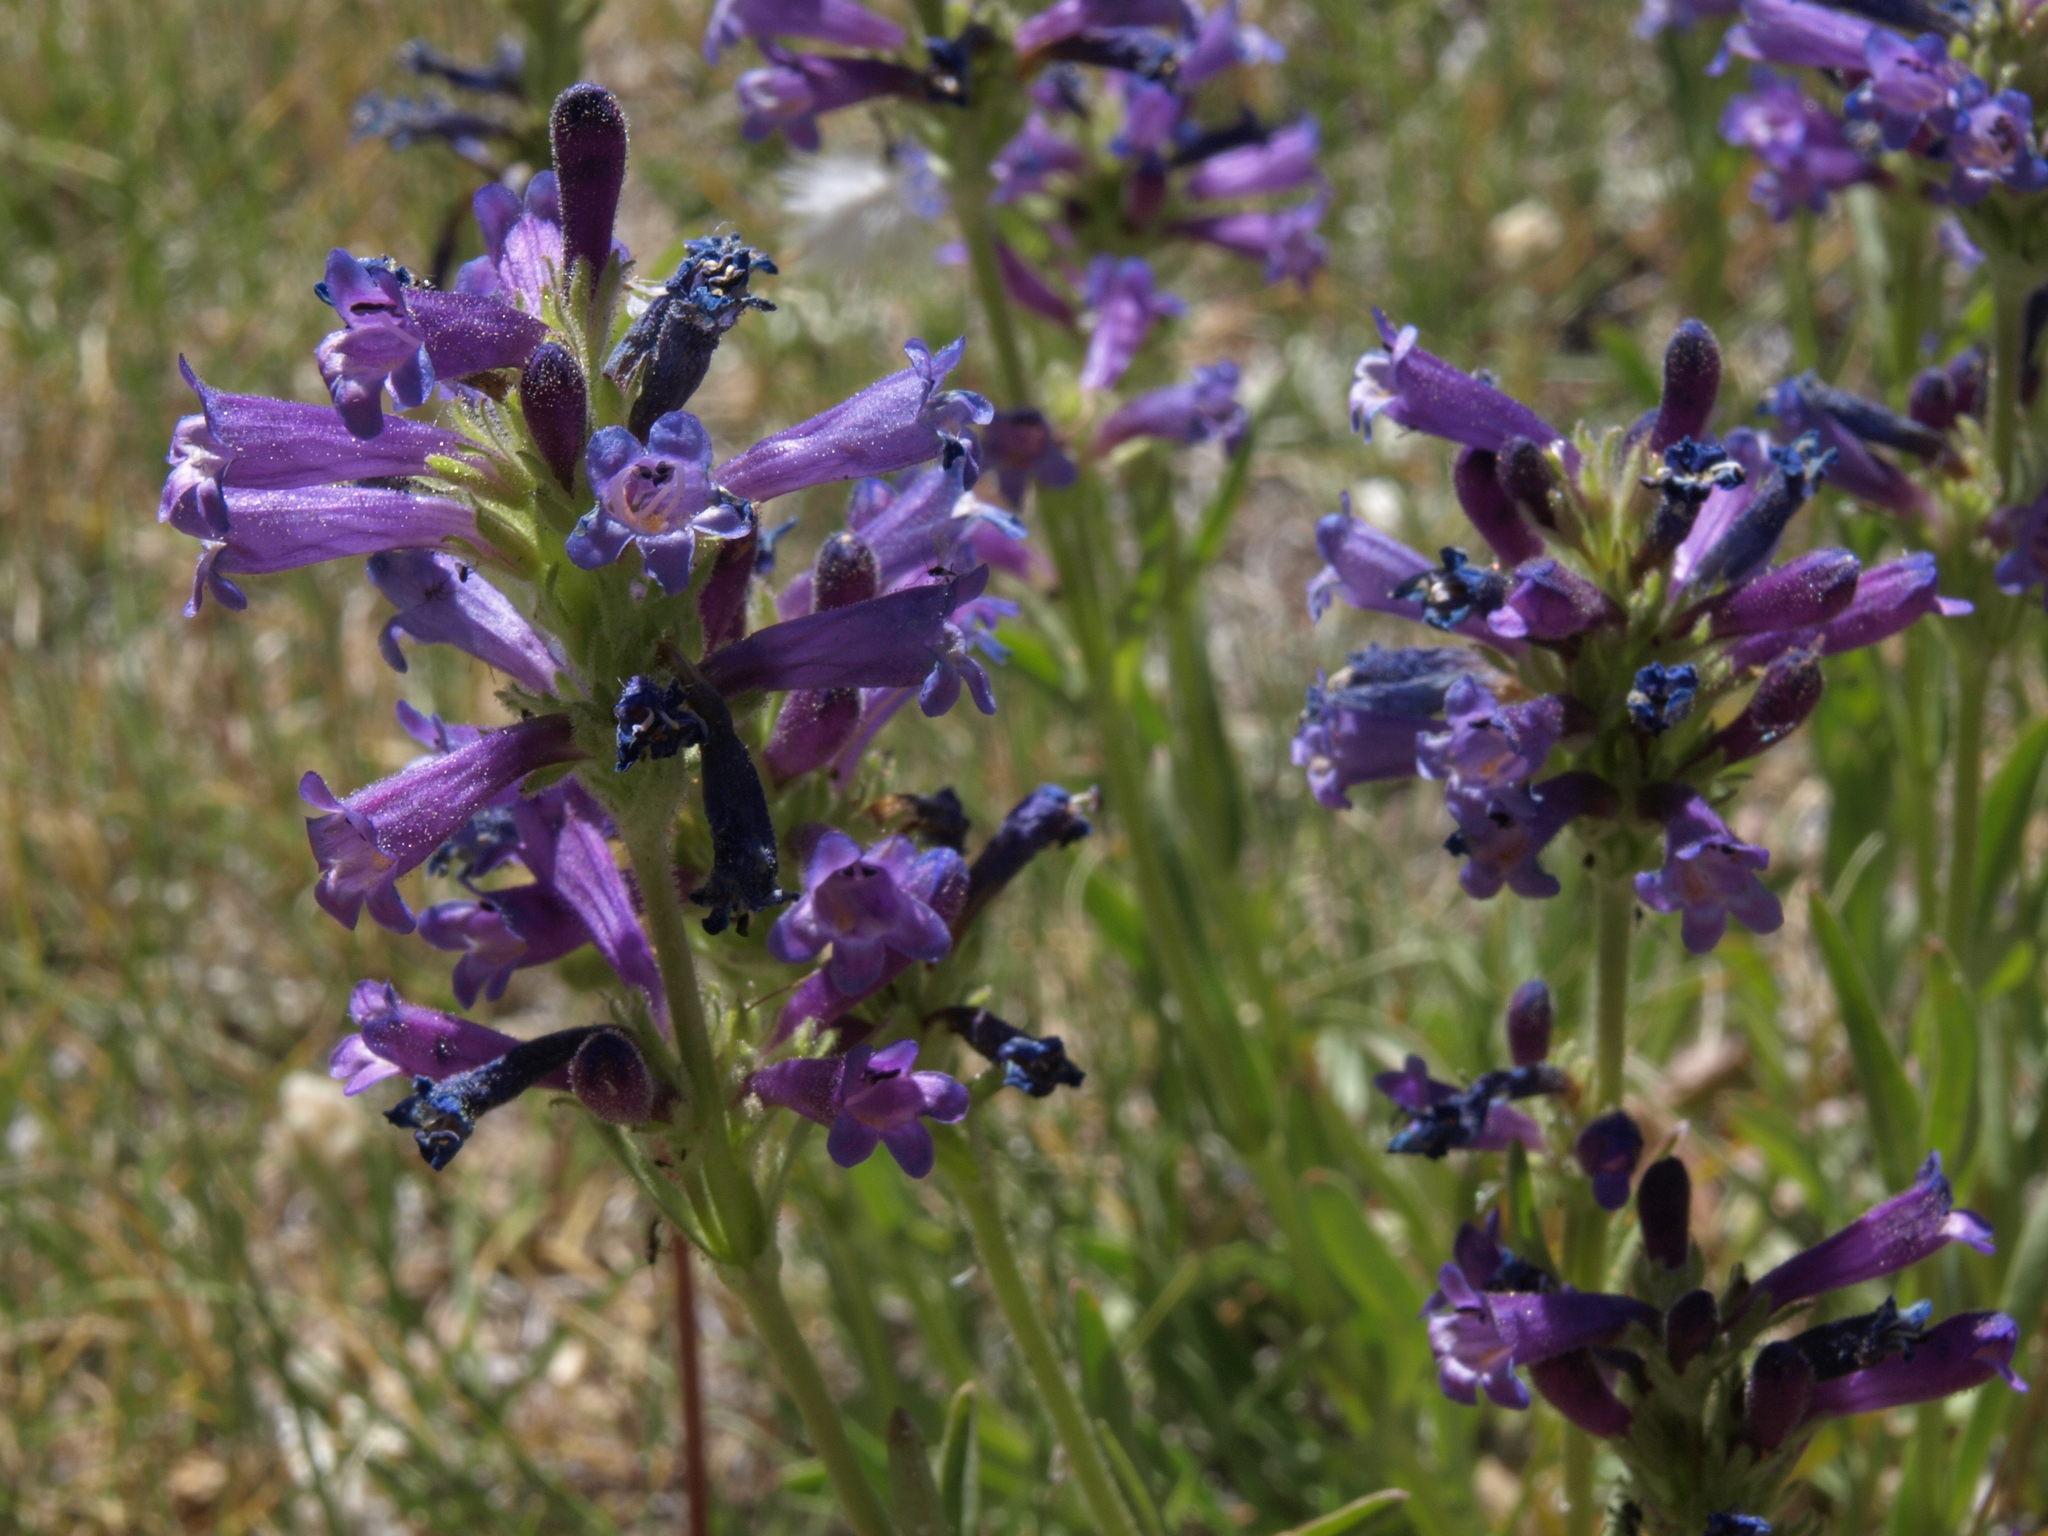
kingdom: Plantae
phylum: Tracheophyta
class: Magnoliopsida
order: Lamiales
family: Plantaginaceae
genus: Penstemon
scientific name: Penstemon heterodoxus
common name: Sierran penstemon
